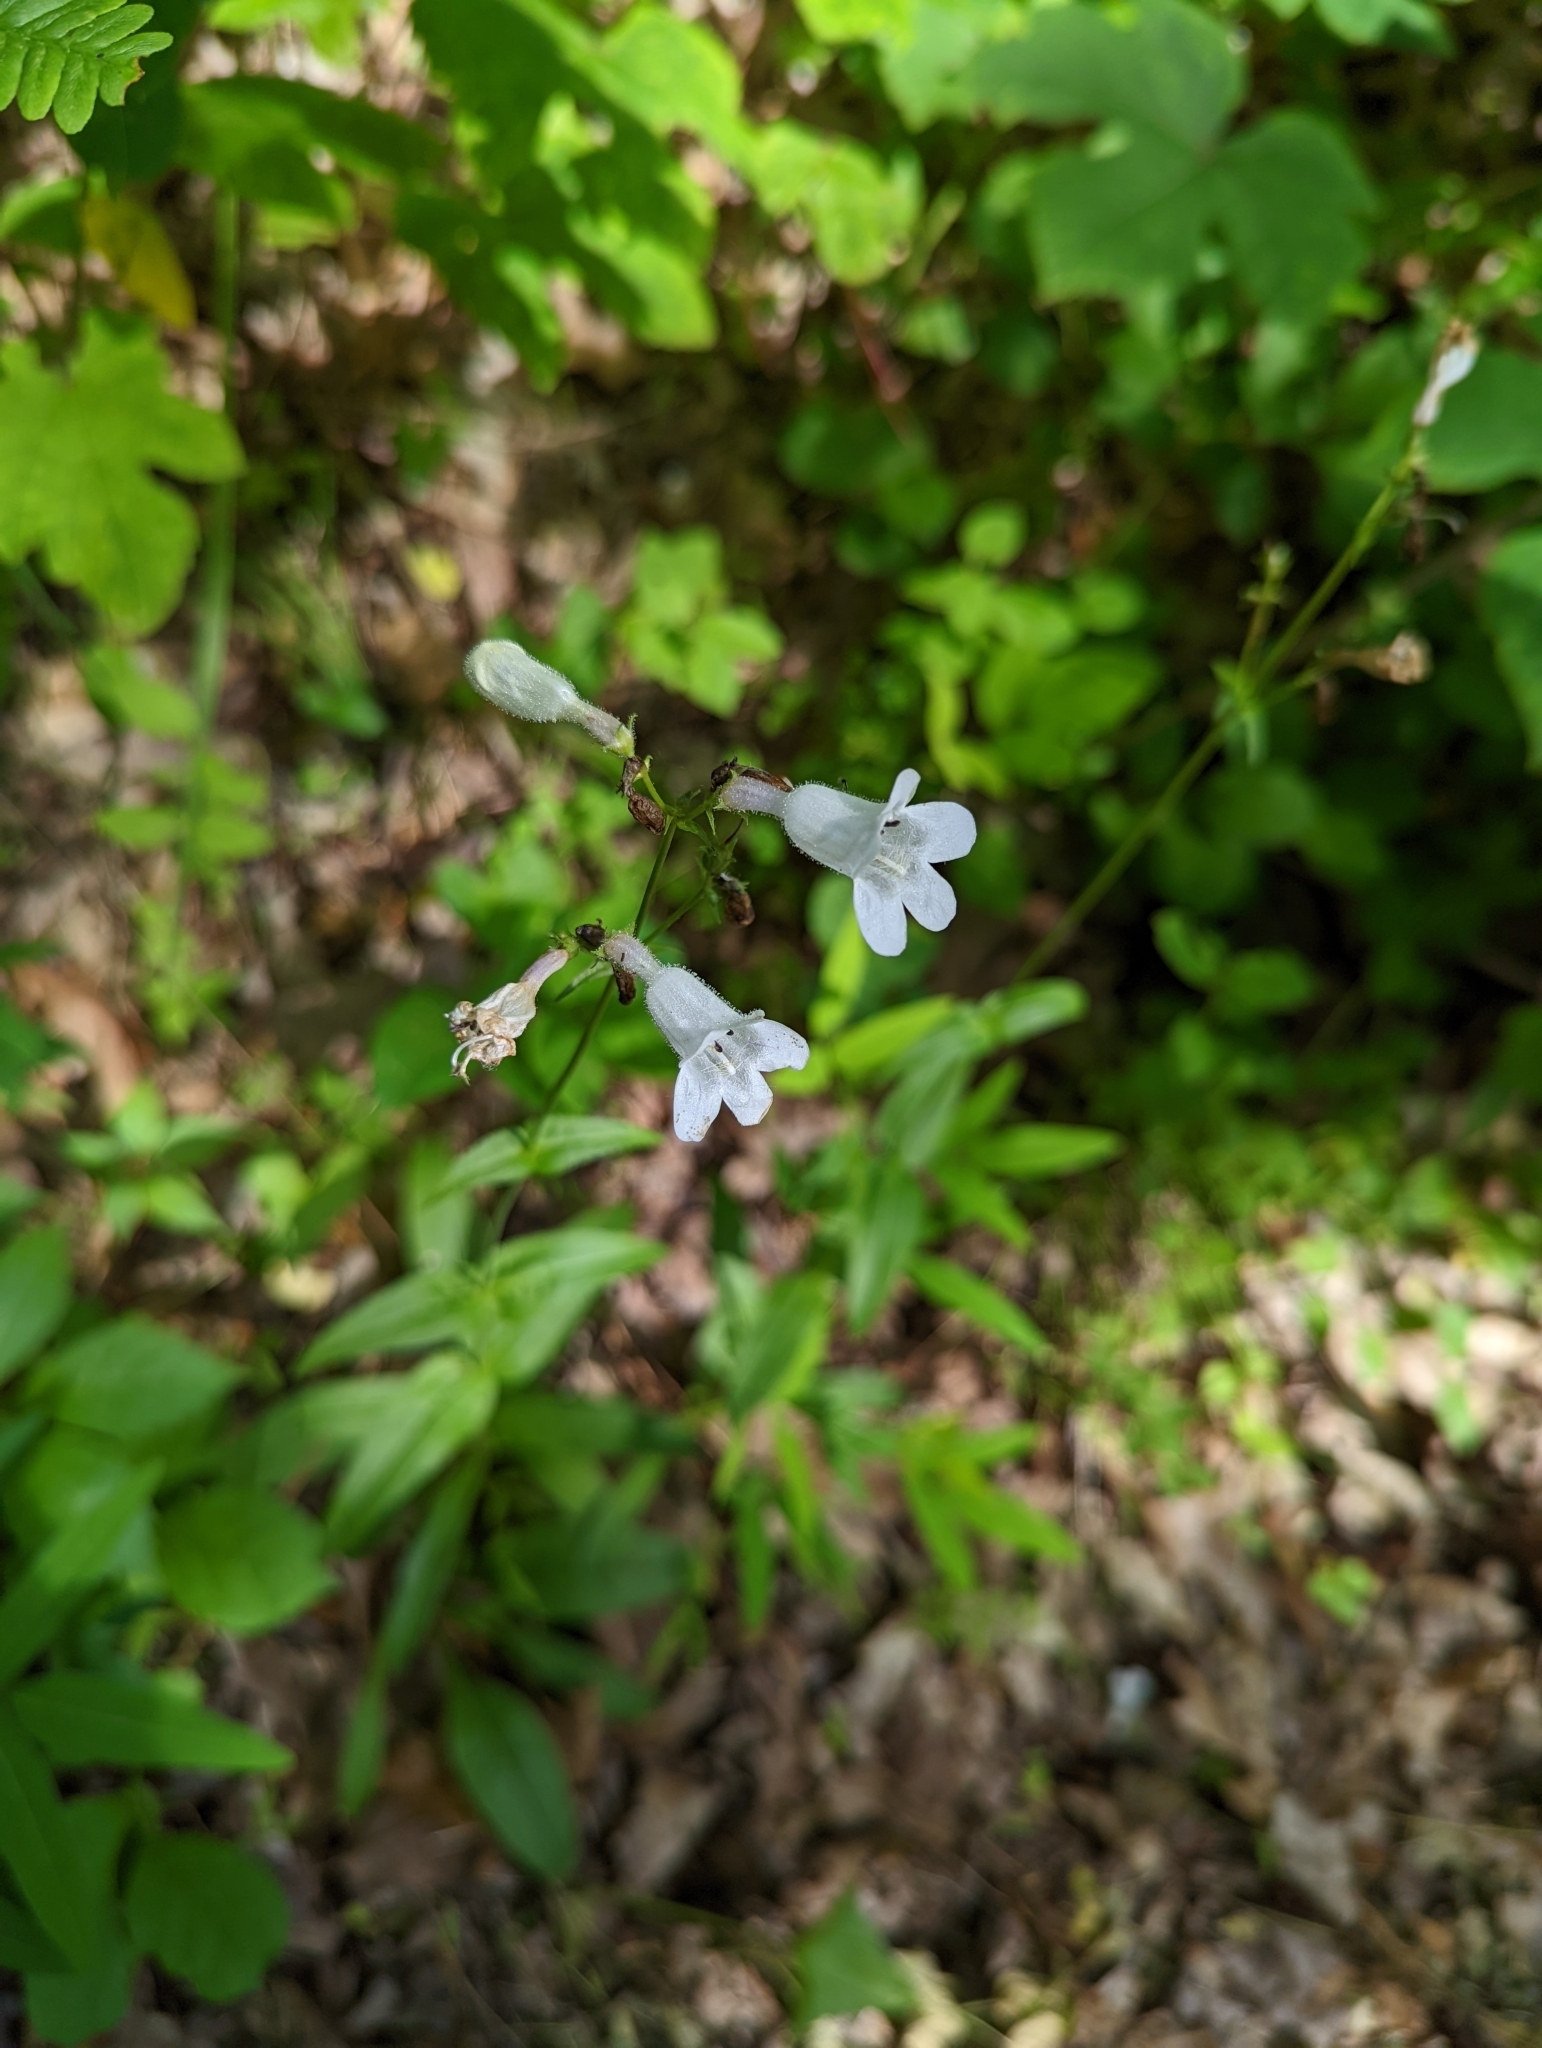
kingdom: Plantae
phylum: Tracheophyta
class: Magnoliopsida
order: Lamiales
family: Plantaginaceae
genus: Penstemon
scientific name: Penstemon digitalis
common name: Foxglove beardtongue
